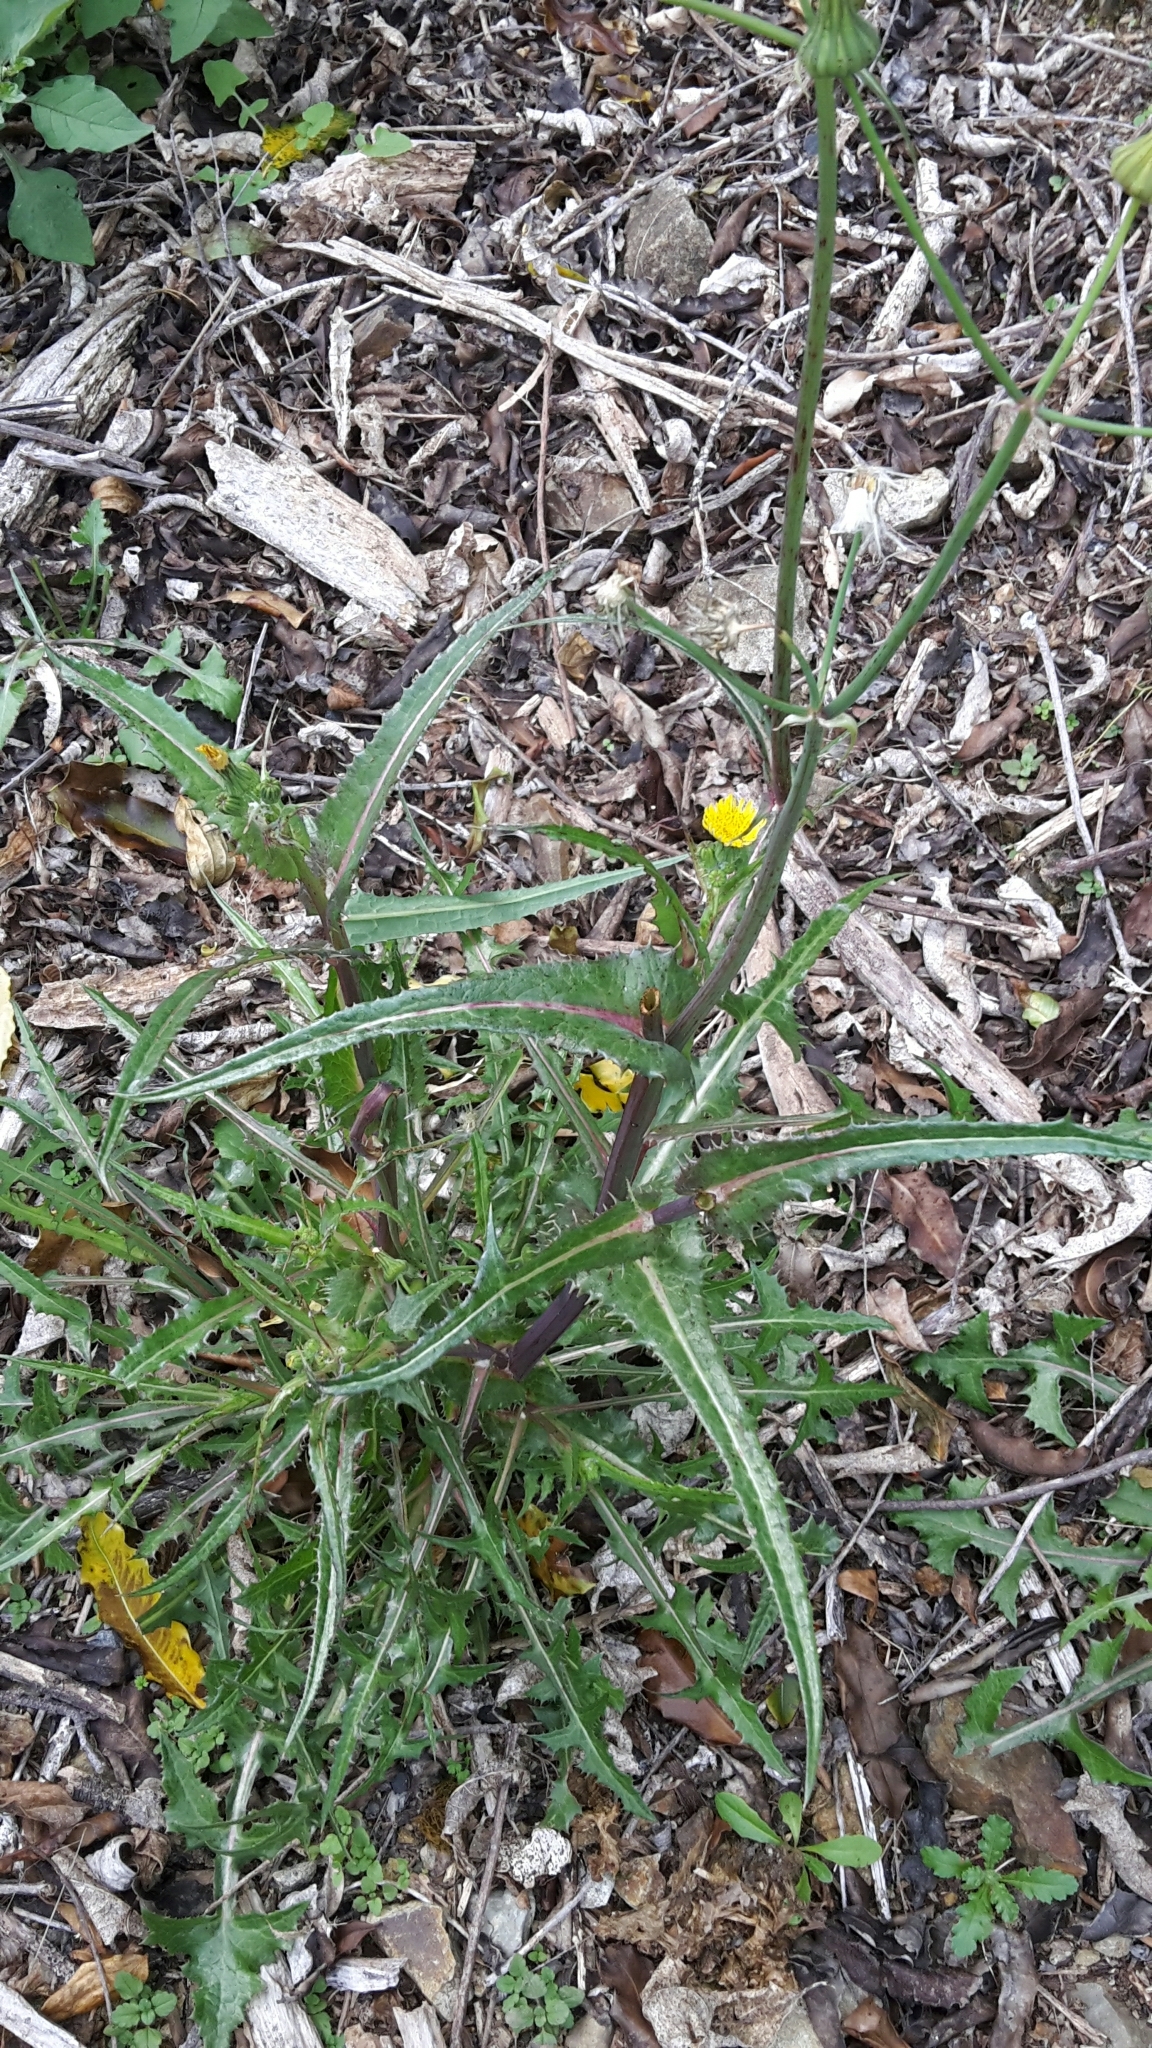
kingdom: Plantae
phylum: Tracheophyta
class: Magnoliopsida
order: Asterales
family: Asteraceae
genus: Sonchus
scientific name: Sonchus asper
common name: Prickly sow-thistle
